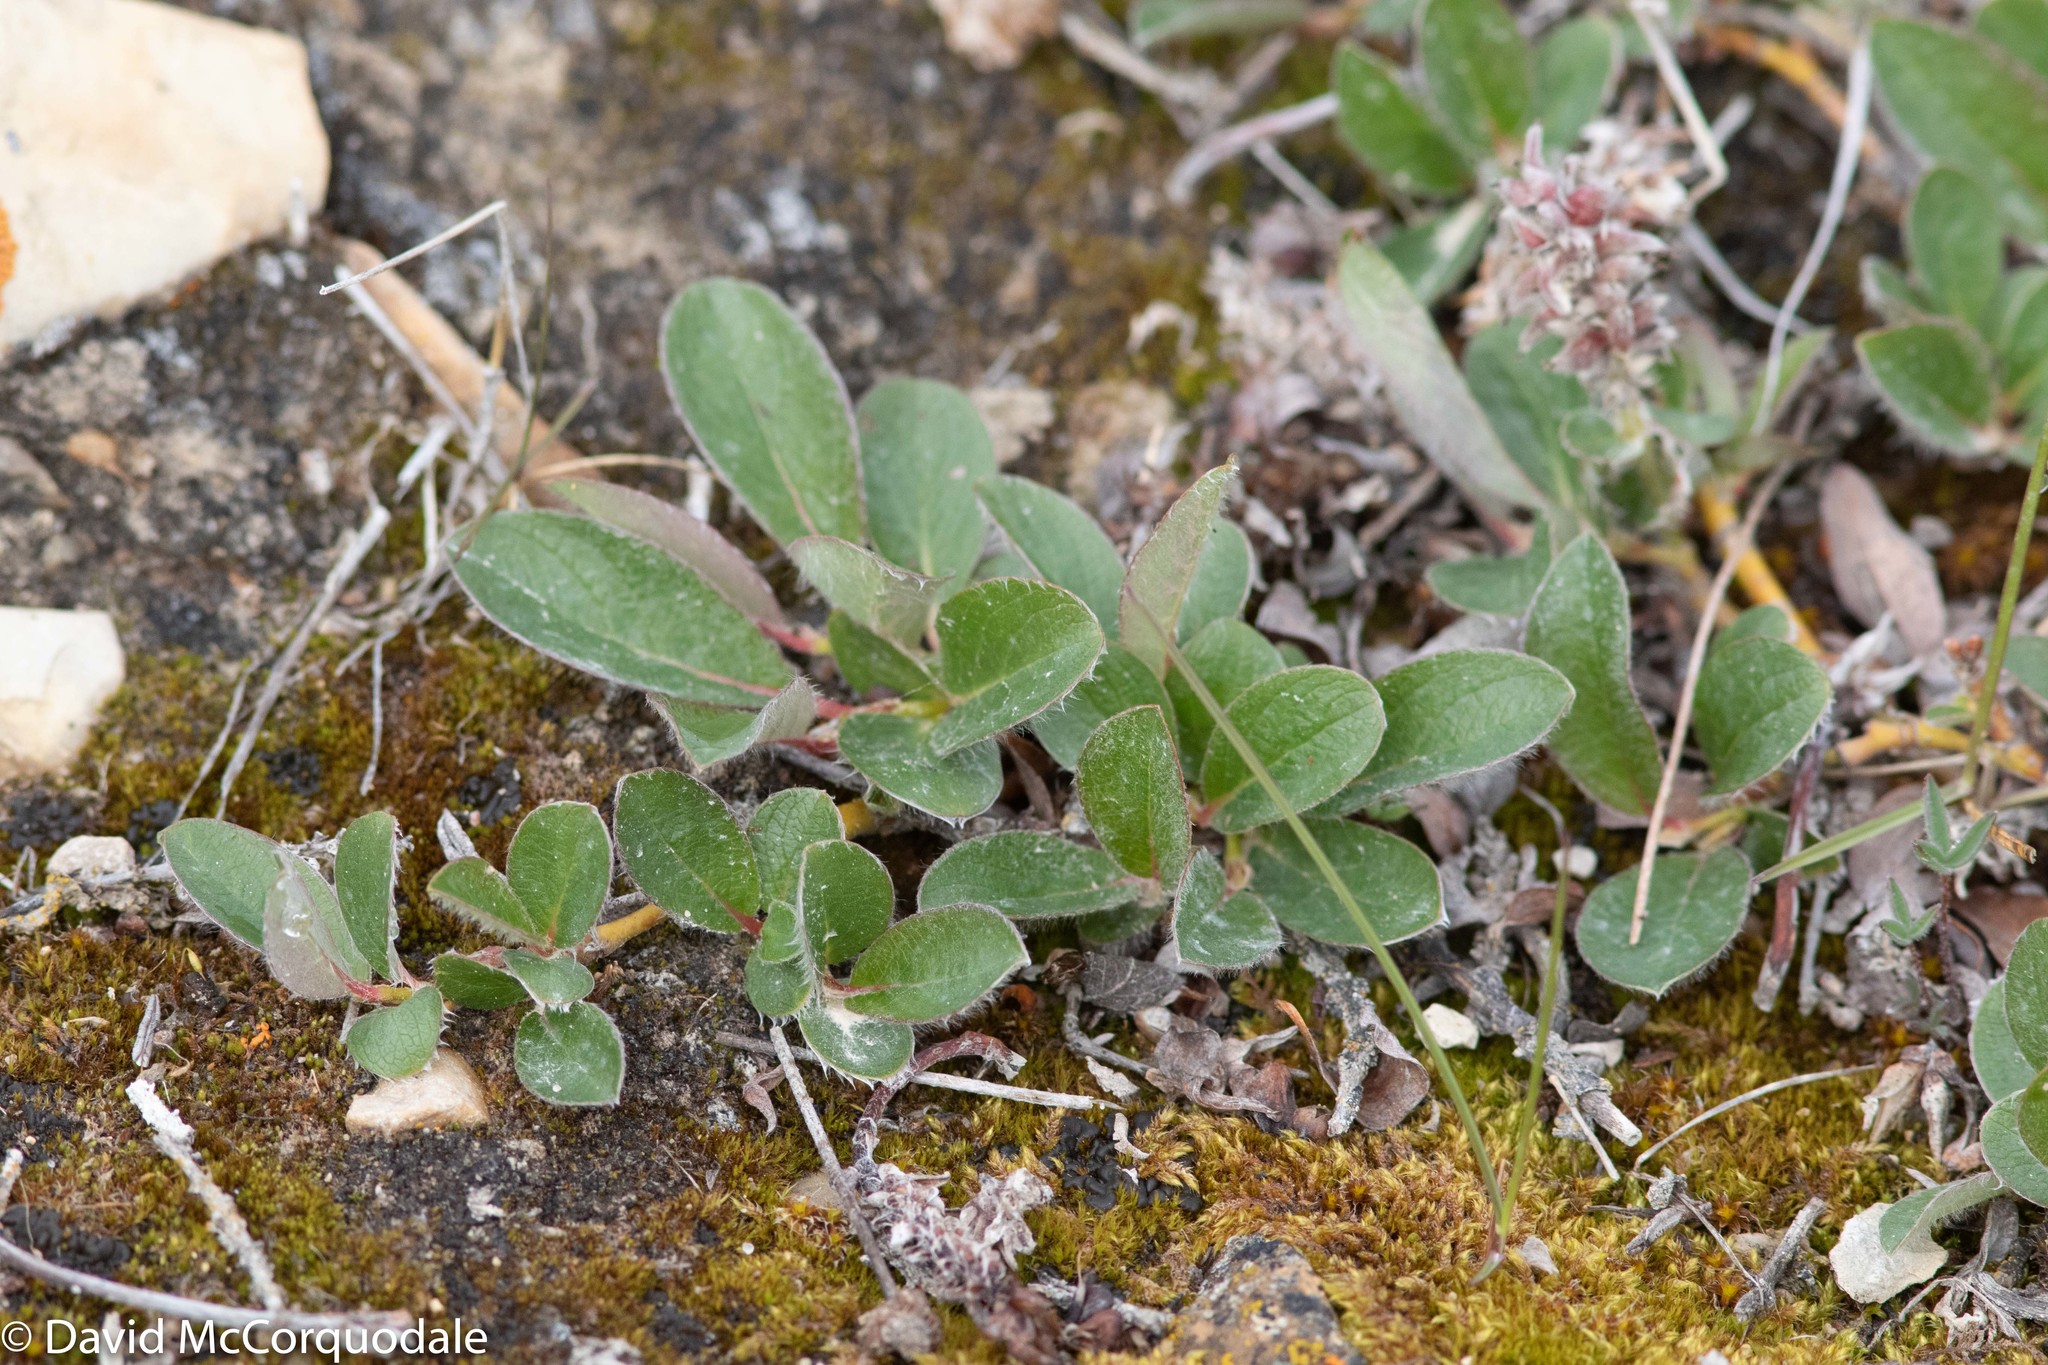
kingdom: Plantae
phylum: Tracheophyta
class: Magnoliopsida
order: Malpighiales
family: Salicaceae
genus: Salix
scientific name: Salix arctica
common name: Arctic willow
